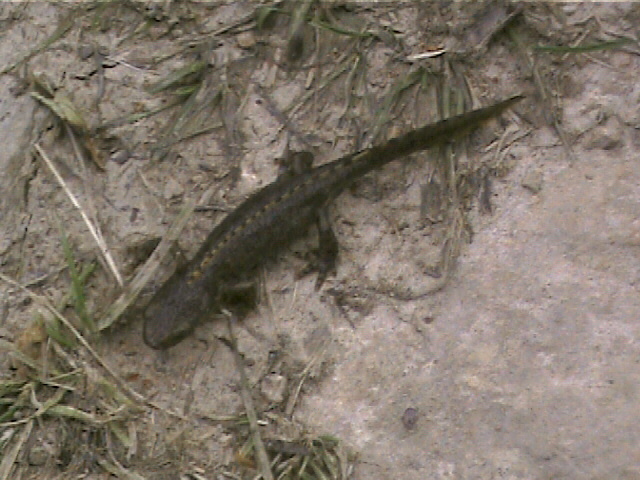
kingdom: Animalia
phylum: Chordata
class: Amphibia
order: Caudata
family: Salamandridae
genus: Ichthyosaura
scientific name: Ichthyosaura alpestris
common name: Alpine newt
